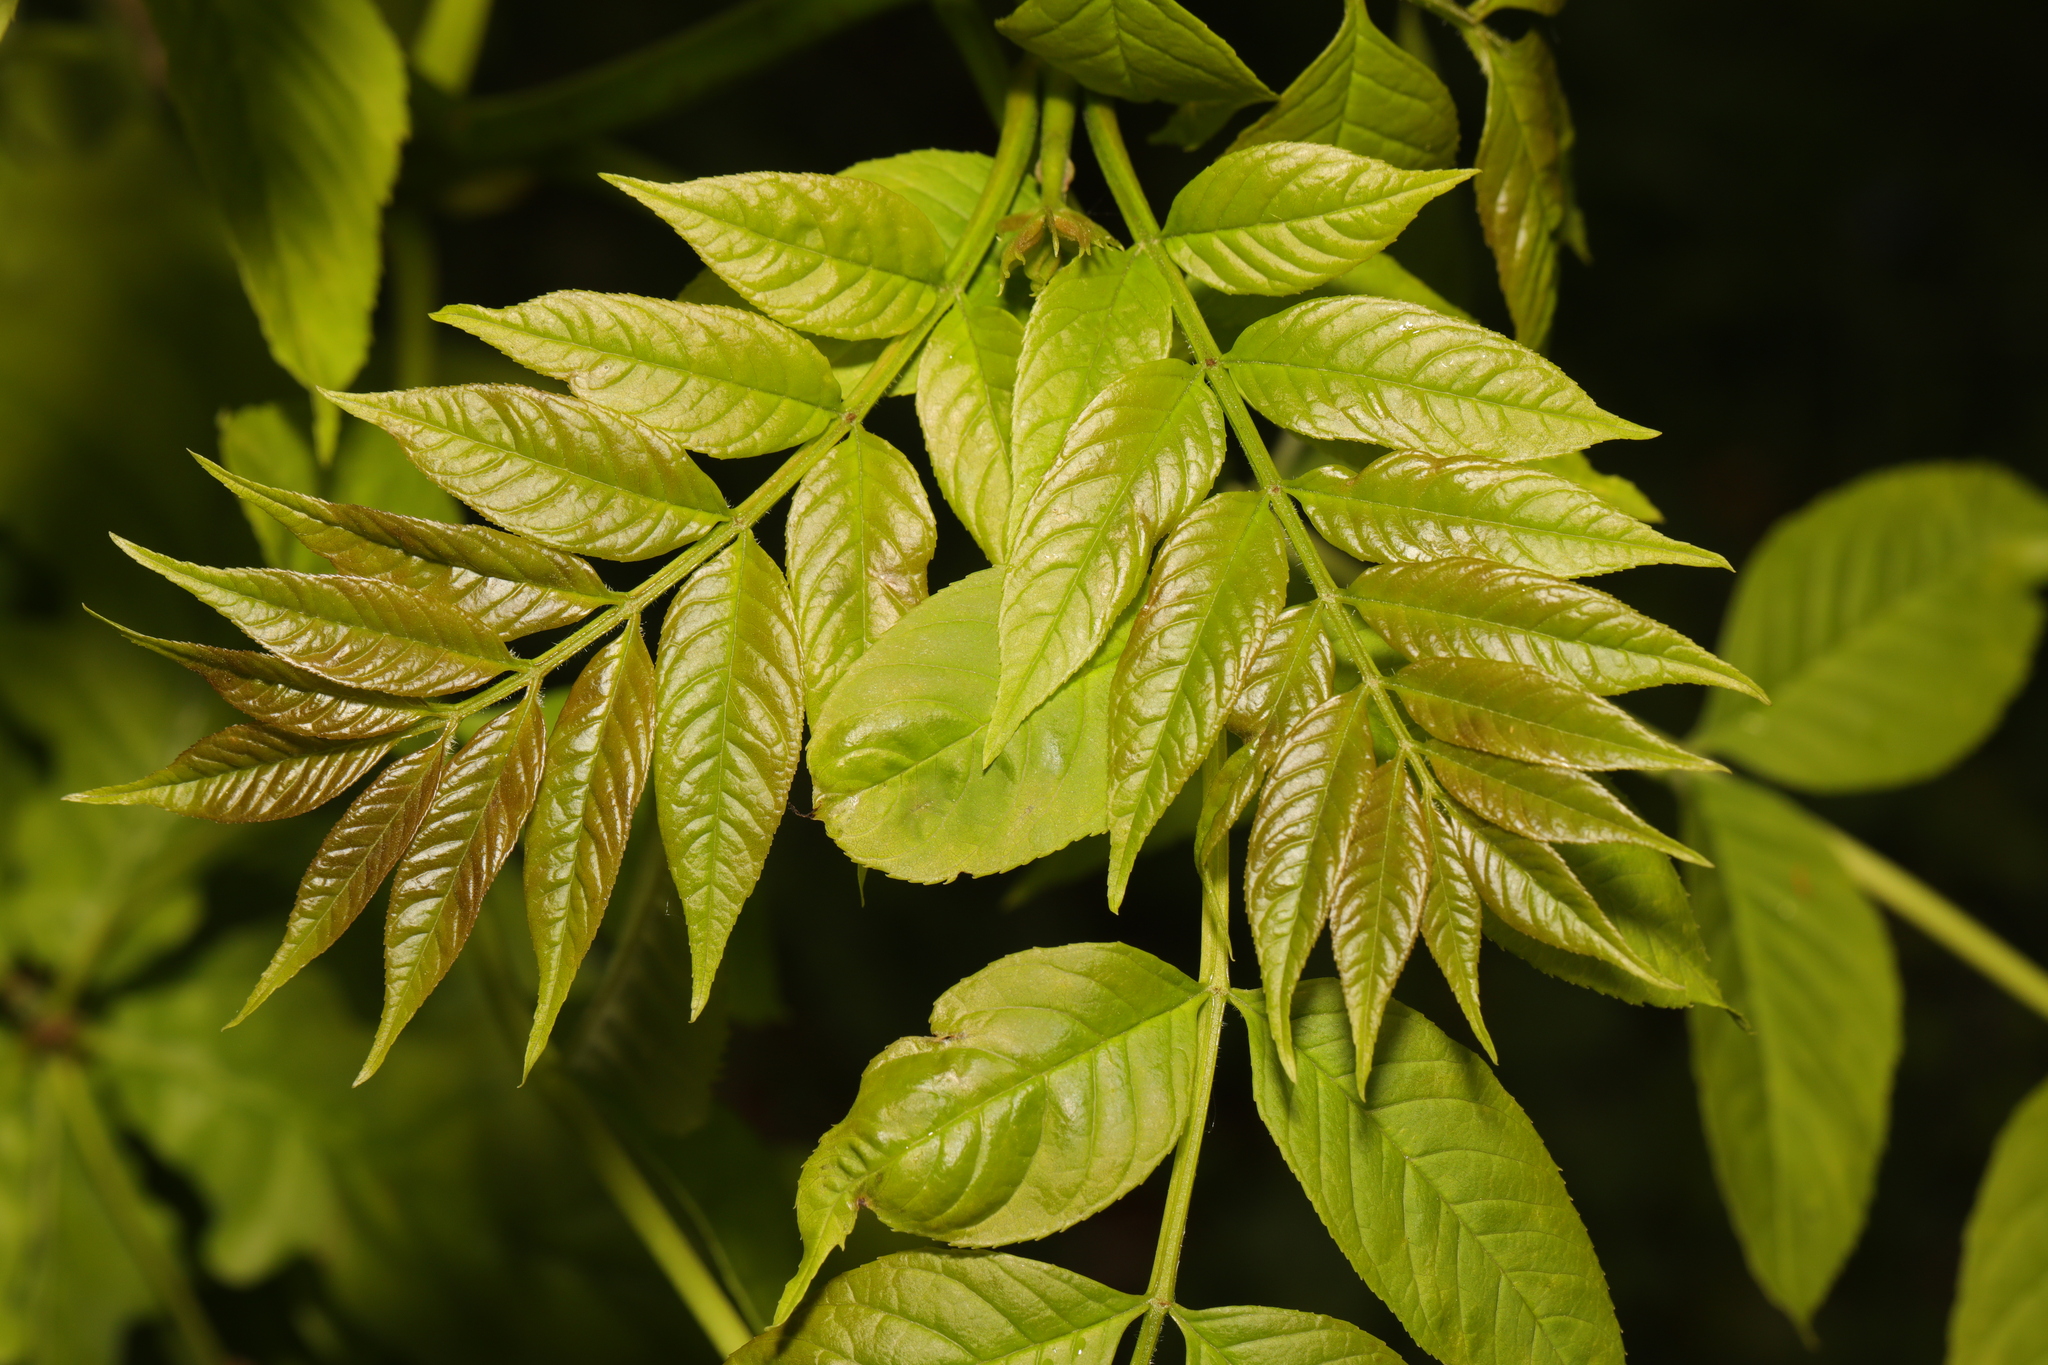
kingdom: Plantae
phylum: Tracheophyta
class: Magnoliopsida
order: Lamiales
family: Oleaceae
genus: Fraxinus
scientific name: Fraxinus excelsior
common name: European ash
